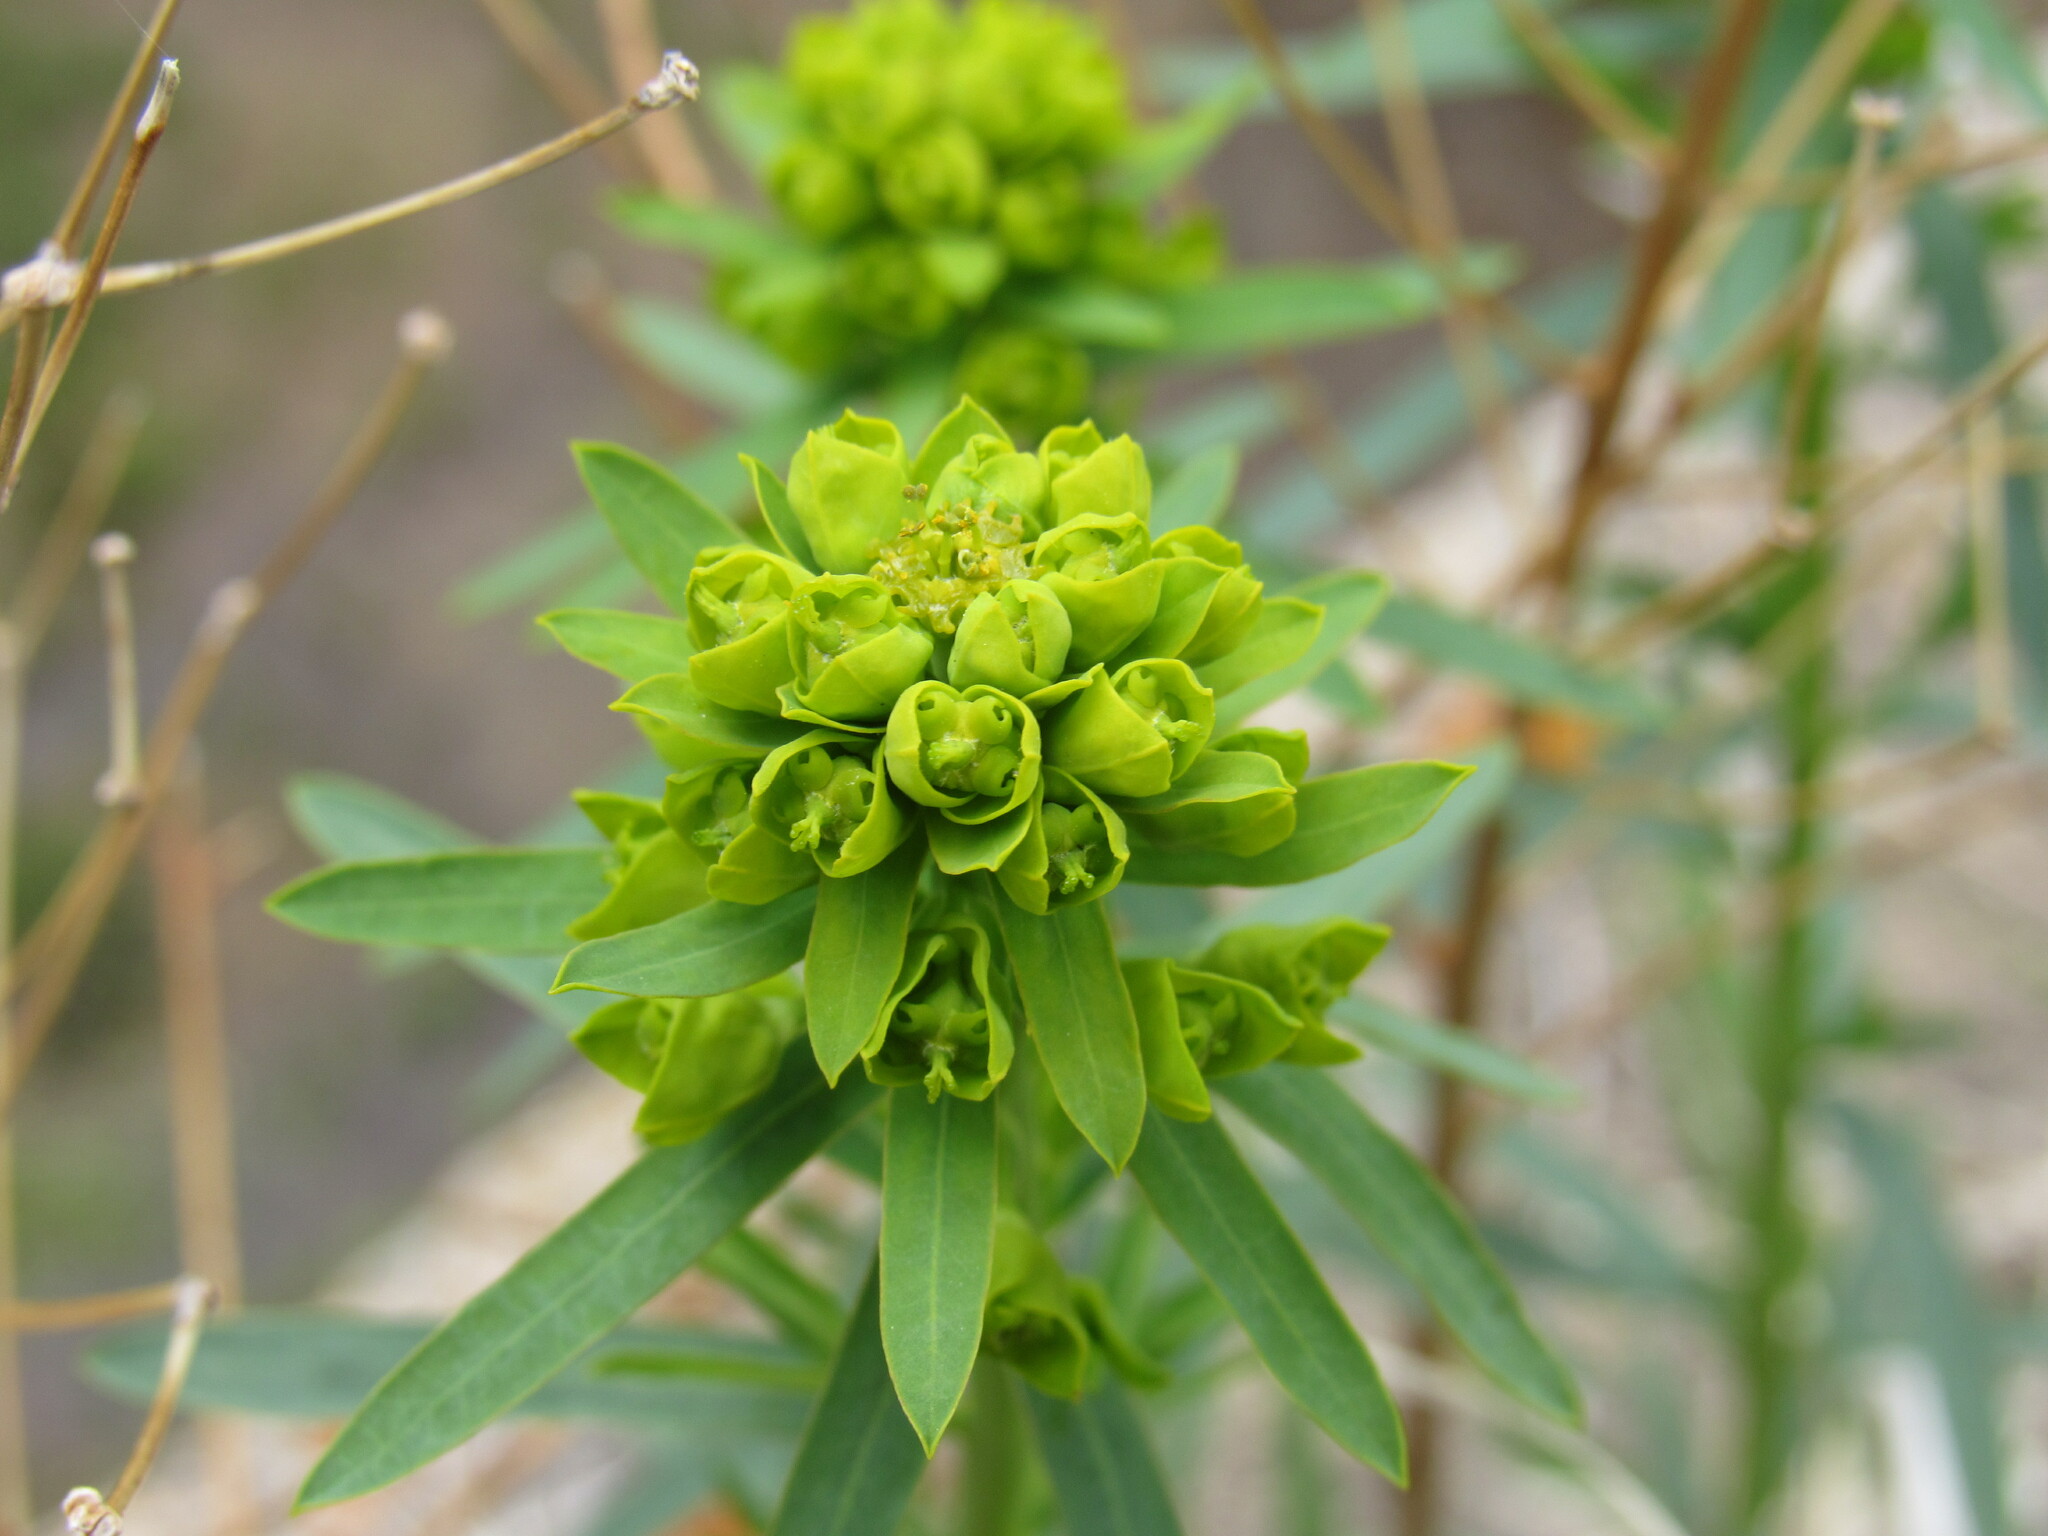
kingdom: Plantae
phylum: Tracheophyta
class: Magnoliopsida
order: Malpighiales
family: Euphorbiaceae
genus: Euphorbia
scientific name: Euphorbia virgata
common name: Leafy spurge
